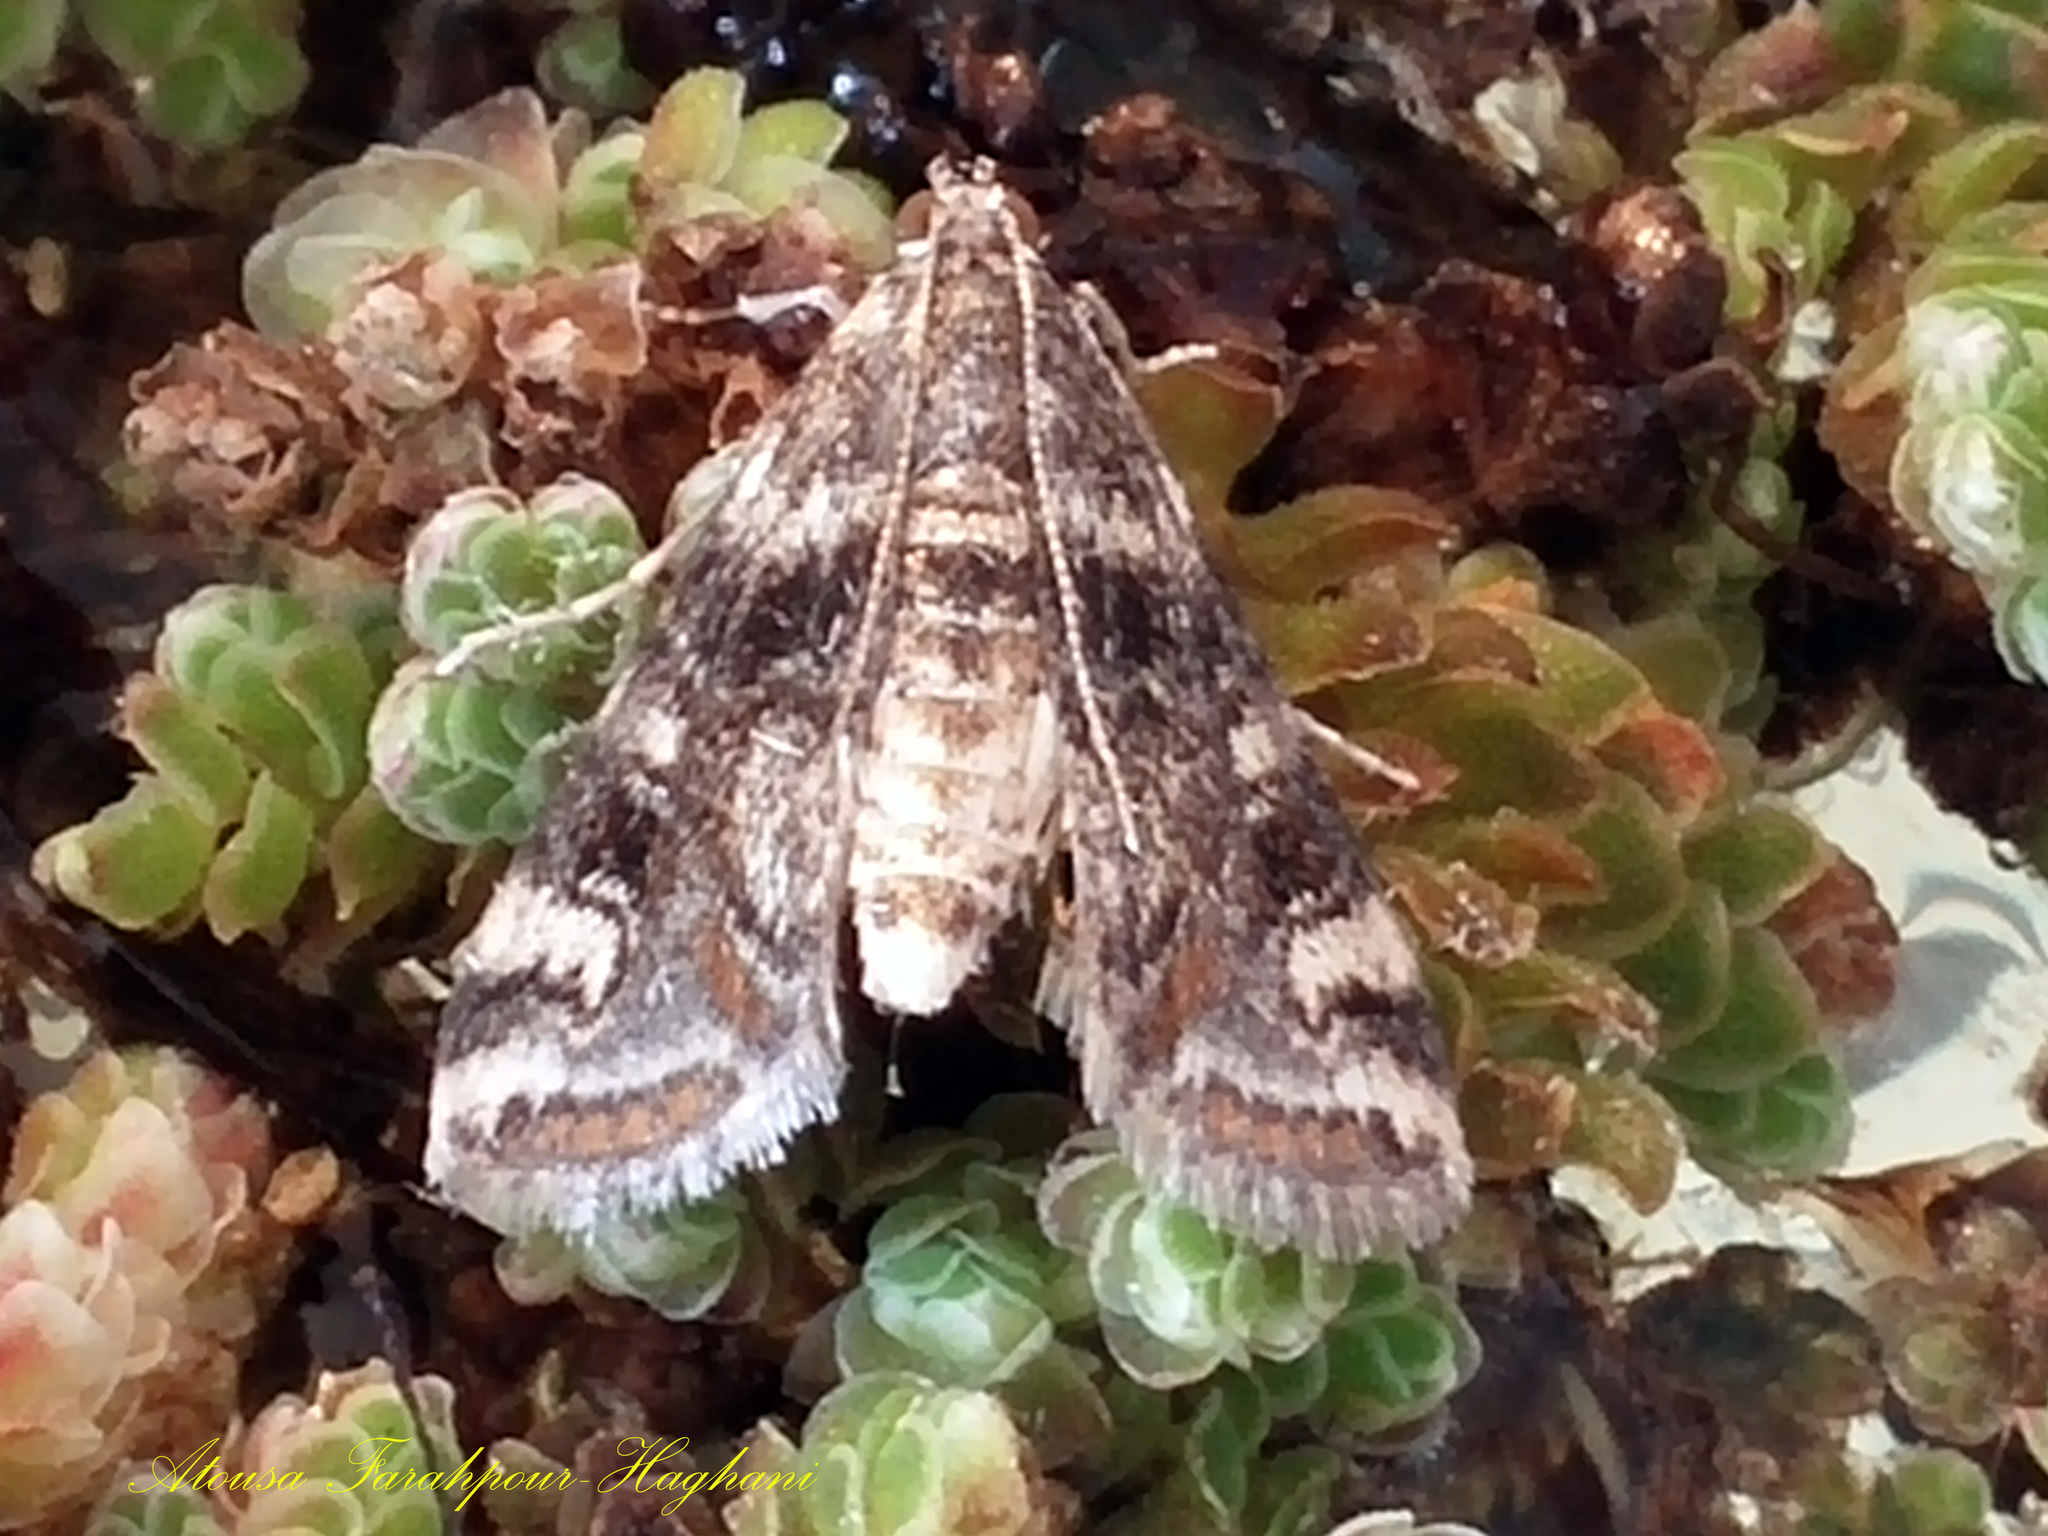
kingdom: Animalia
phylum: Arthropoda
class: Insecta
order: Lepidoptera
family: Crambidae
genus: Cataclysta
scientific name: Cataclysta lemnata
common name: Small china-mark
